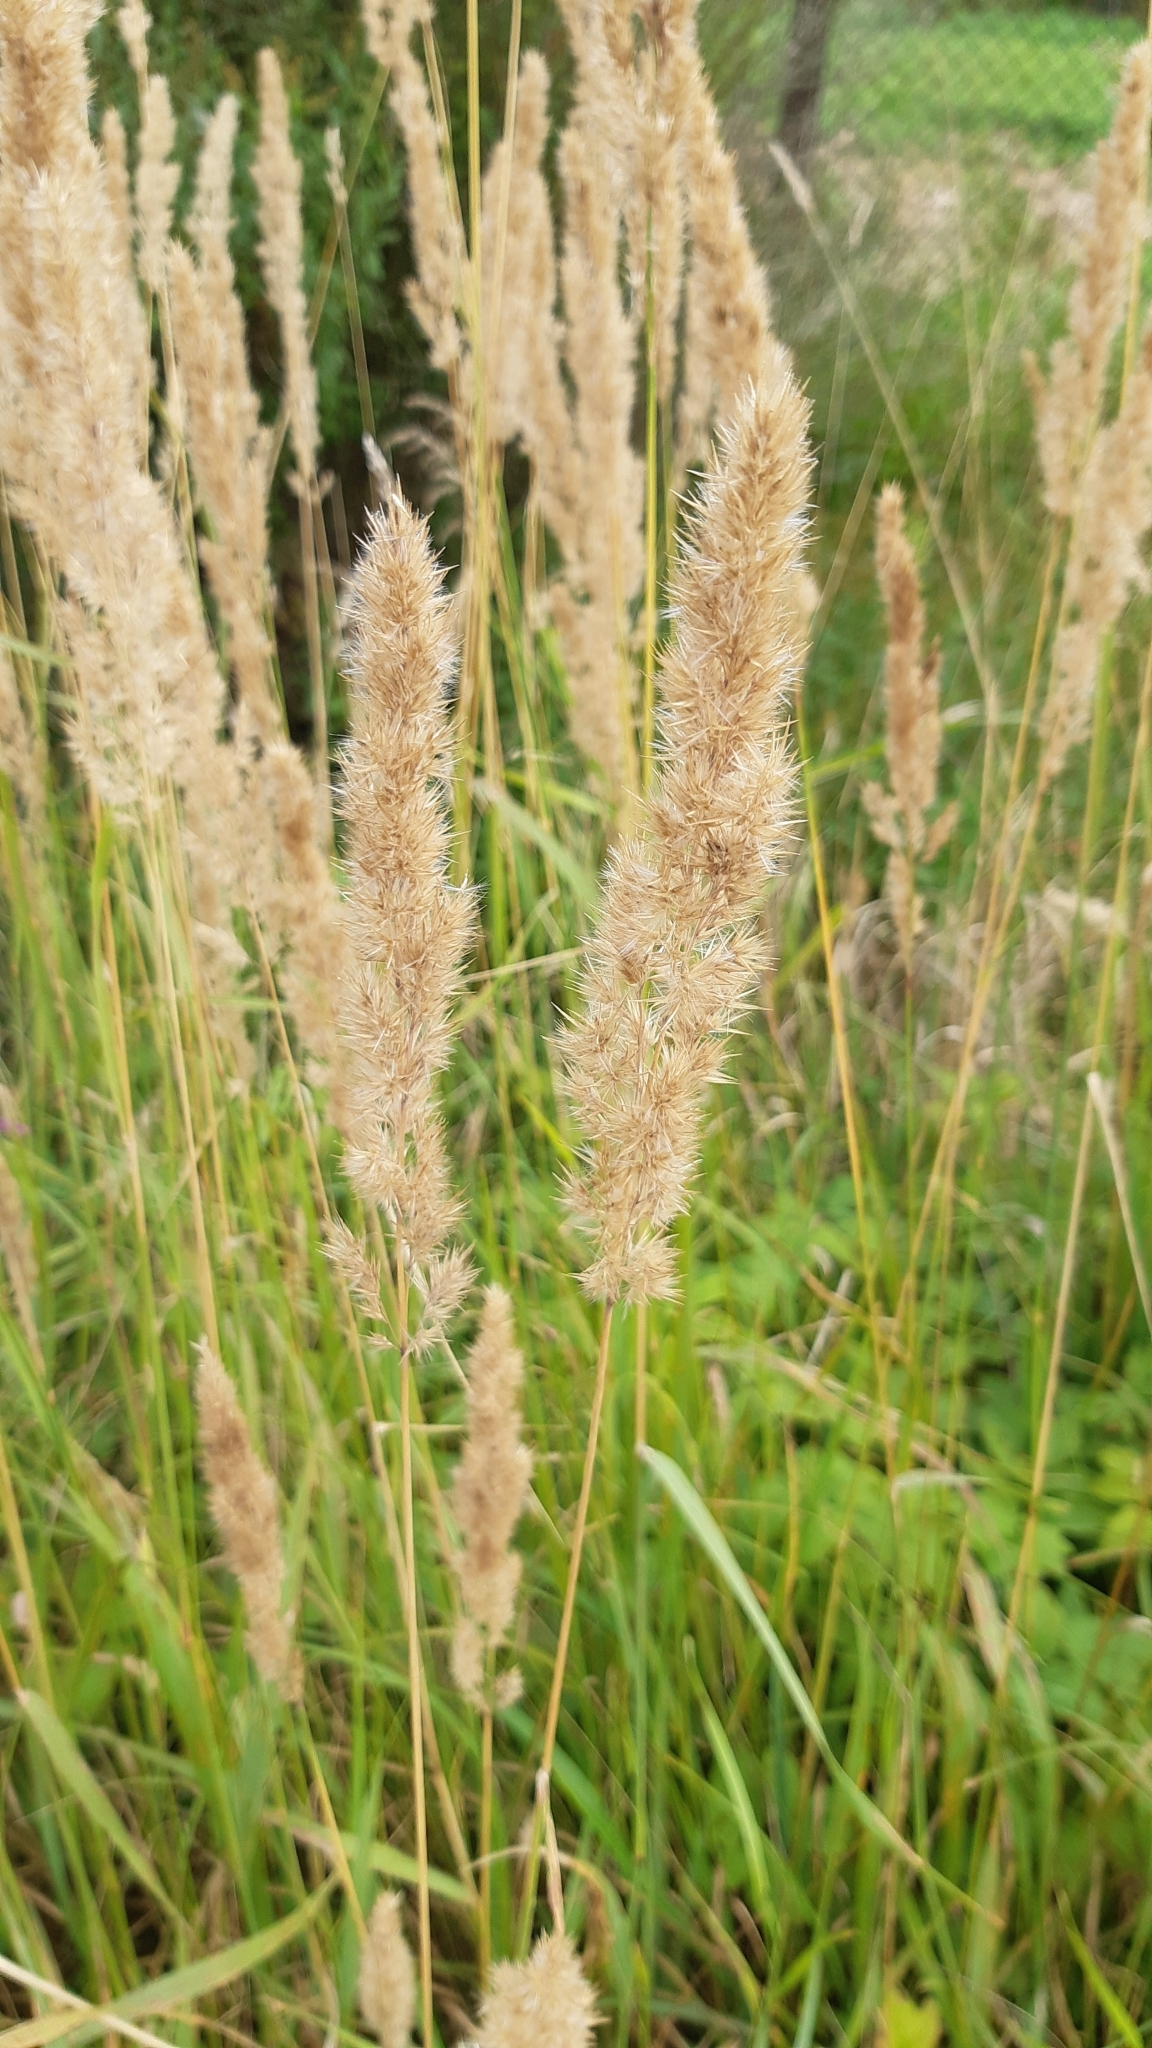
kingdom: Plantae
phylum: Tracheophyta
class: Liliopsida
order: Poales
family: Poaceae
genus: Calamagrostis
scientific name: Calamagrostis epigejos
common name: Wood small-reed
